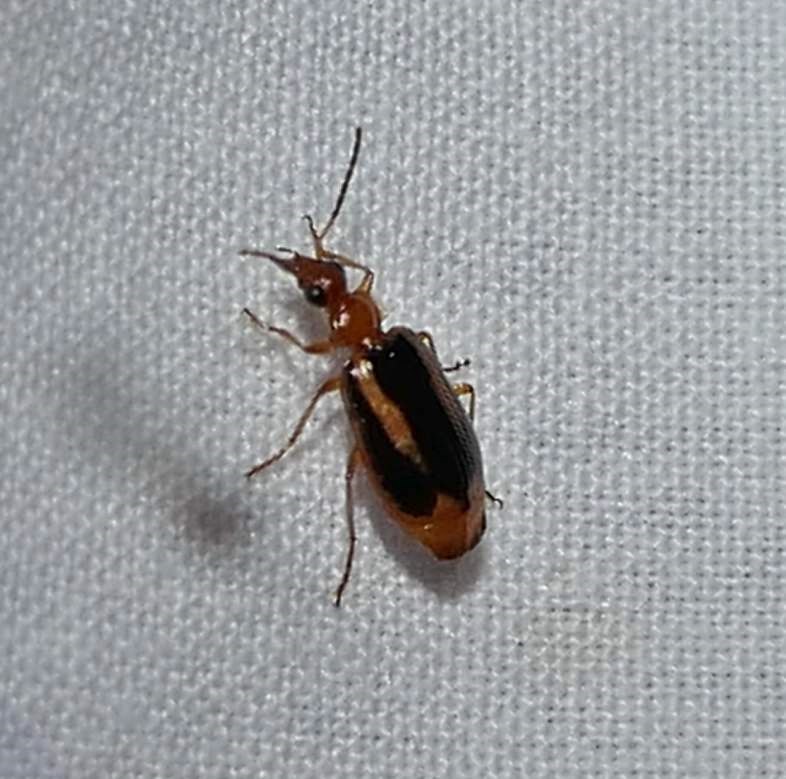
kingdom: Animalia
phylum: Arthropoda
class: Insecta
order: Coleoptera
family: Carabidae
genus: Lebia
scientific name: Lebia solea
